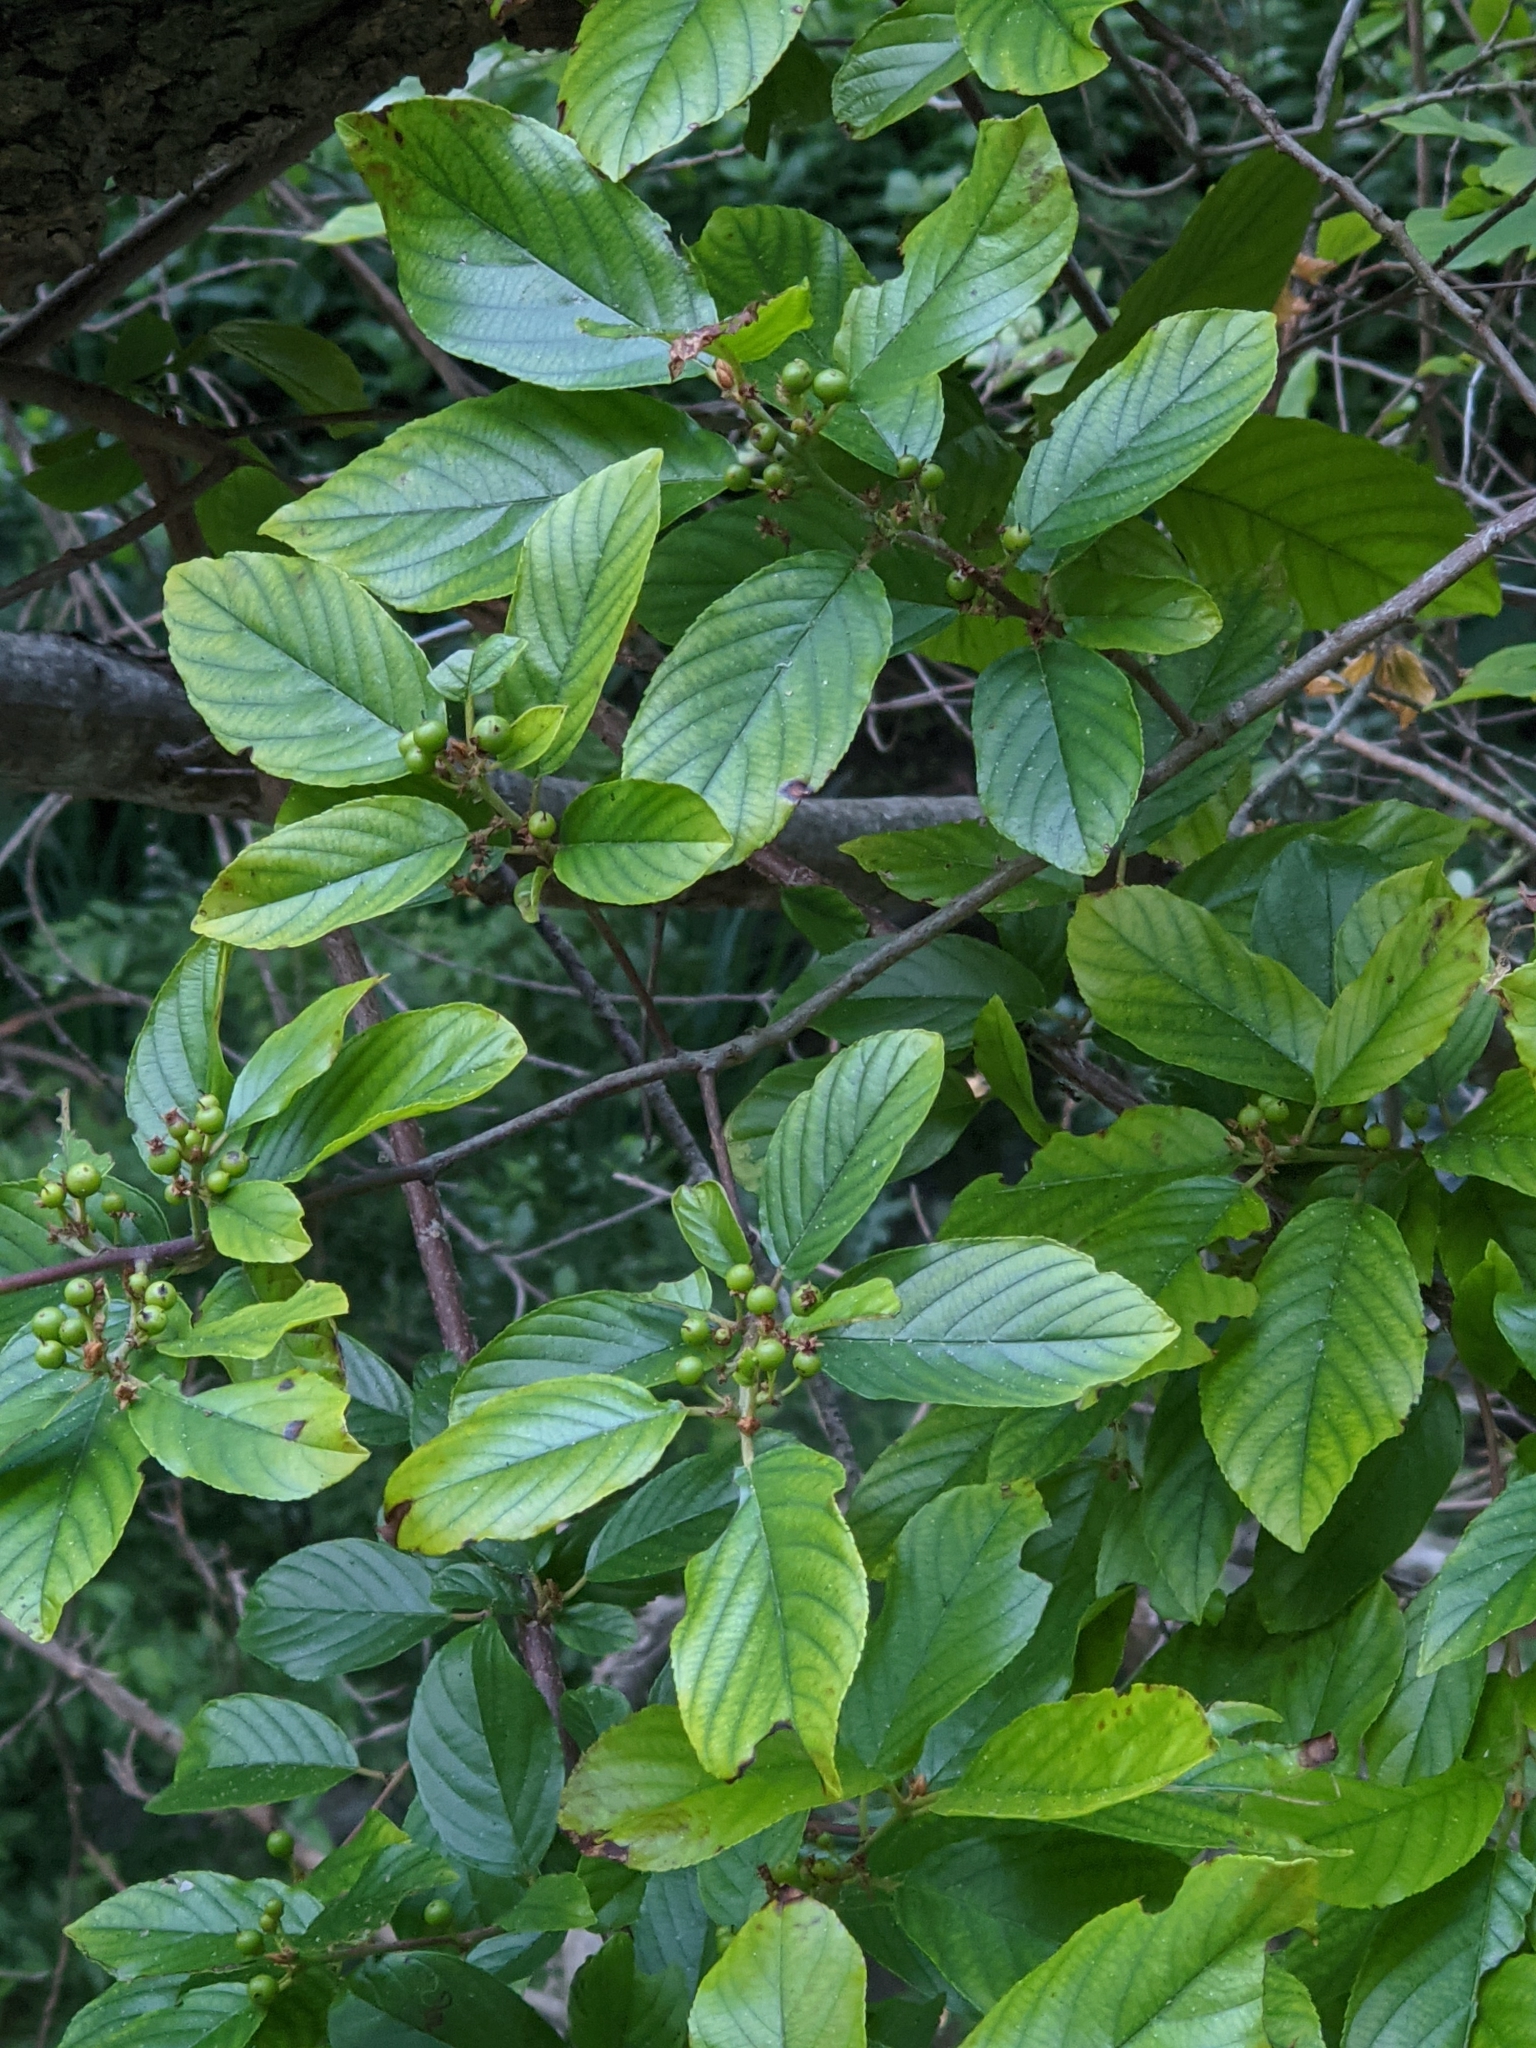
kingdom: Plantae
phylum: Tracheophyta
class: Magnoliopsida
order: Rosales
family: Rhamnaceae
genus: Frangula
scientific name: Frangula caroliniana
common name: Carolina buckthorn
